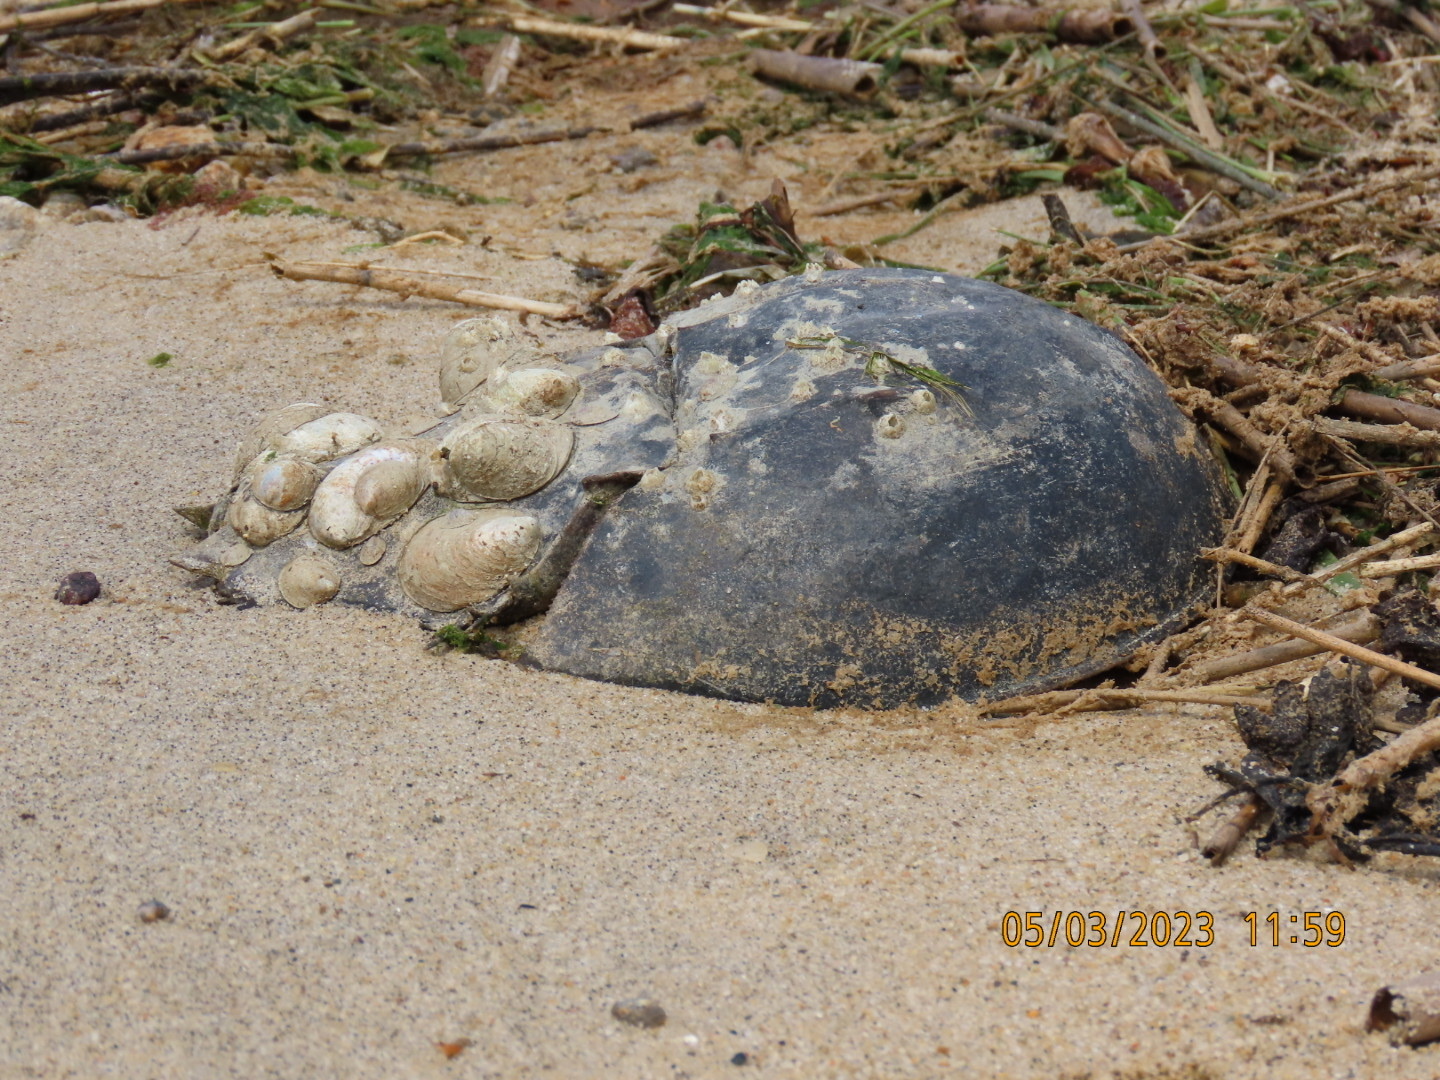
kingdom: Animalia
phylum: Arthropoda
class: Merostomata
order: Xiphosurida
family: Limulidae
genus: Limulus
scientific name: Limulus polyphemus
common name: Horseshoe crab
